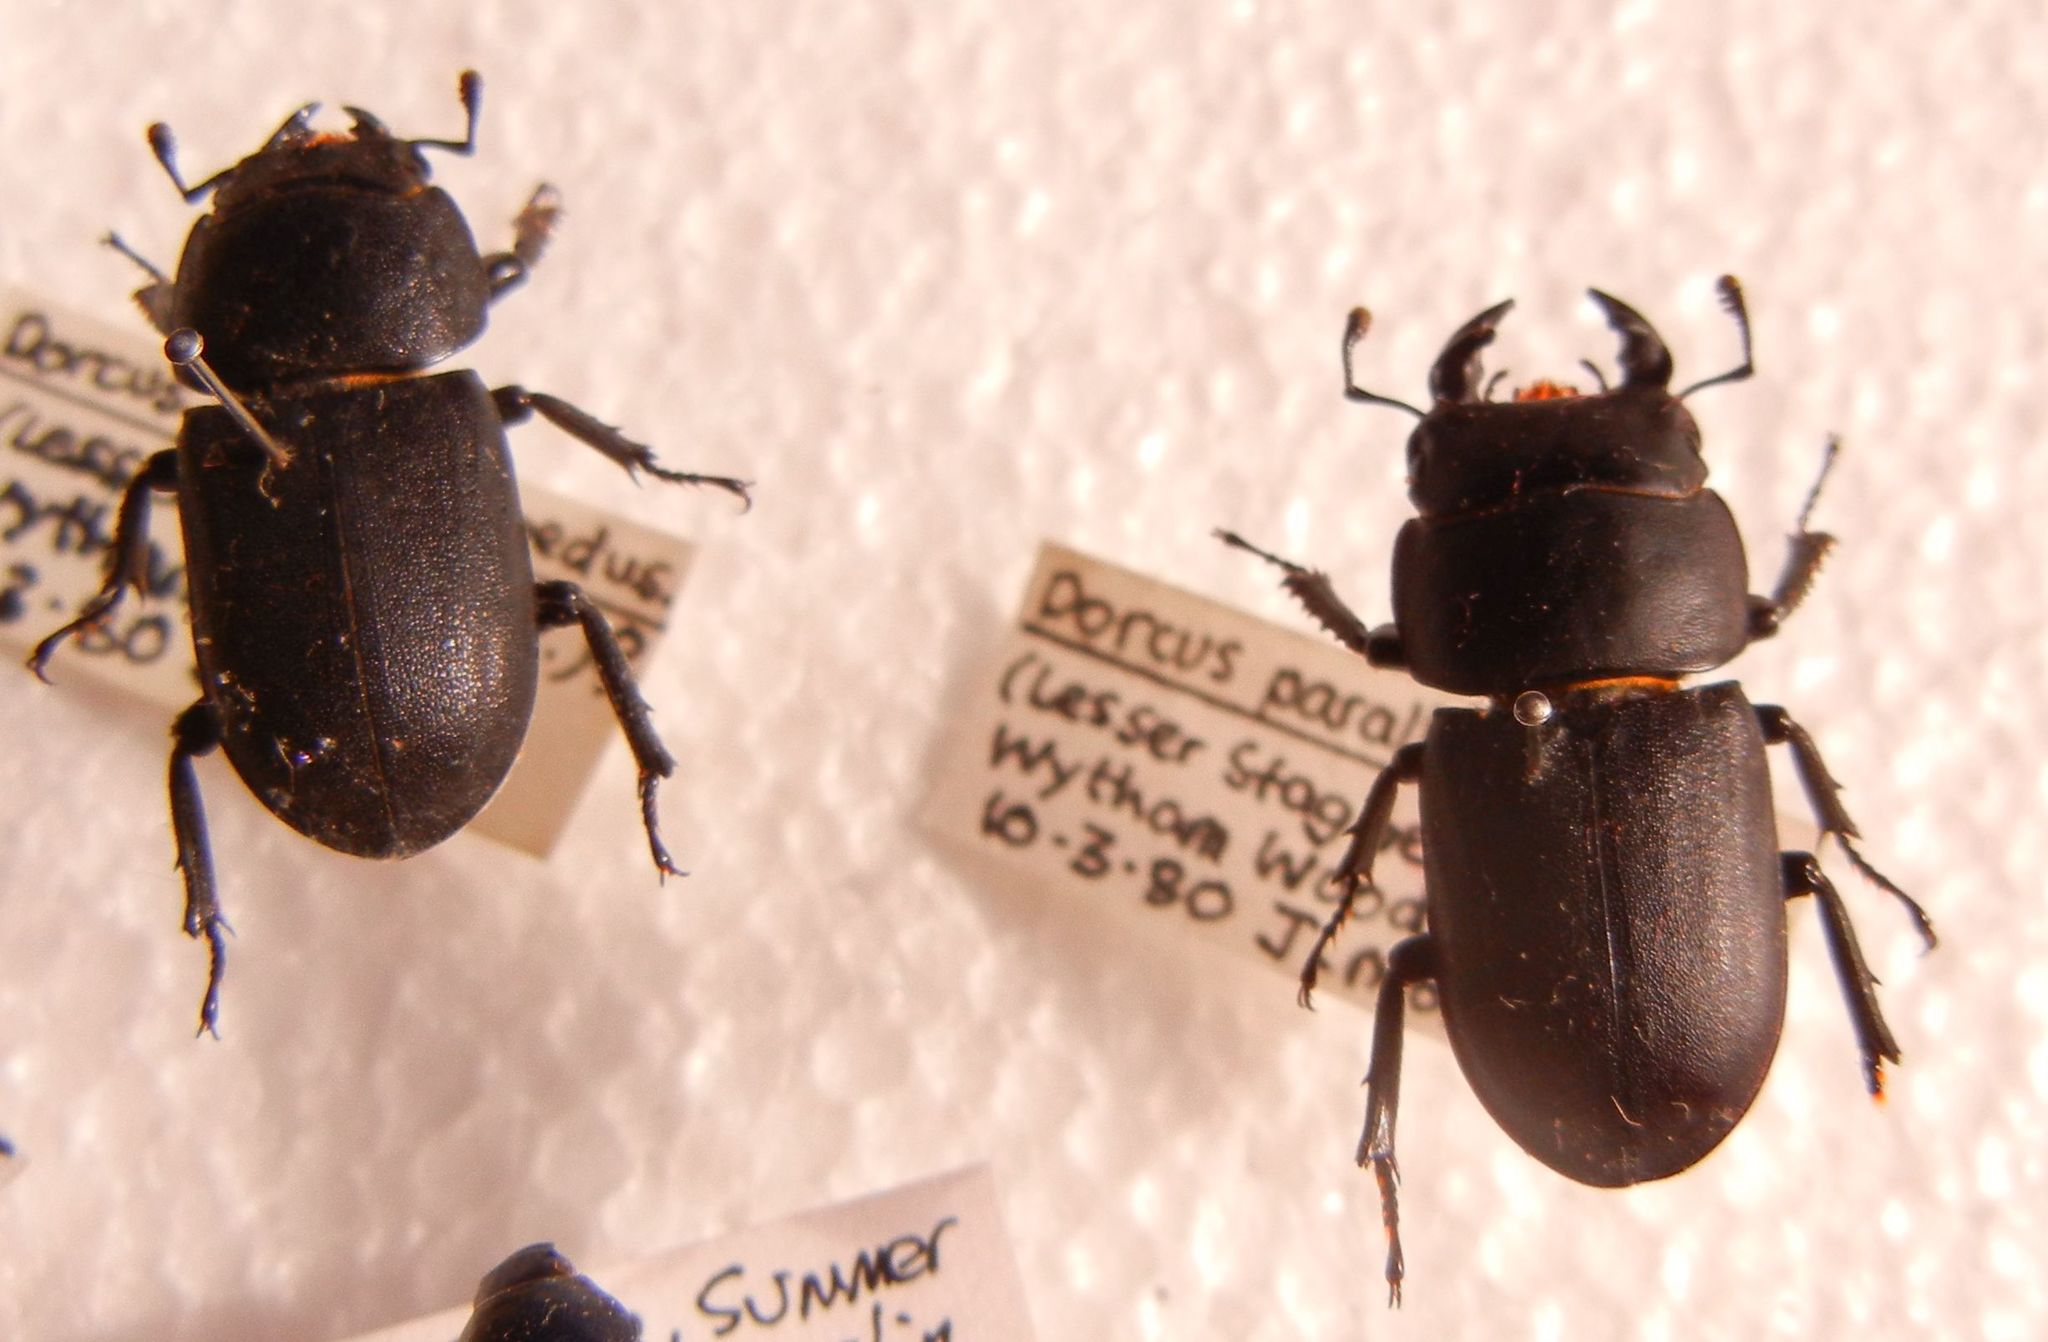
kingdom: Animalia
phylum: Arthropoda
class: Insecta
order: Coleoptera
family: Lucanidae
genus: Dorcus
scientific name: Dorcus parallelipipedus
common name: Lesser stag beetle
